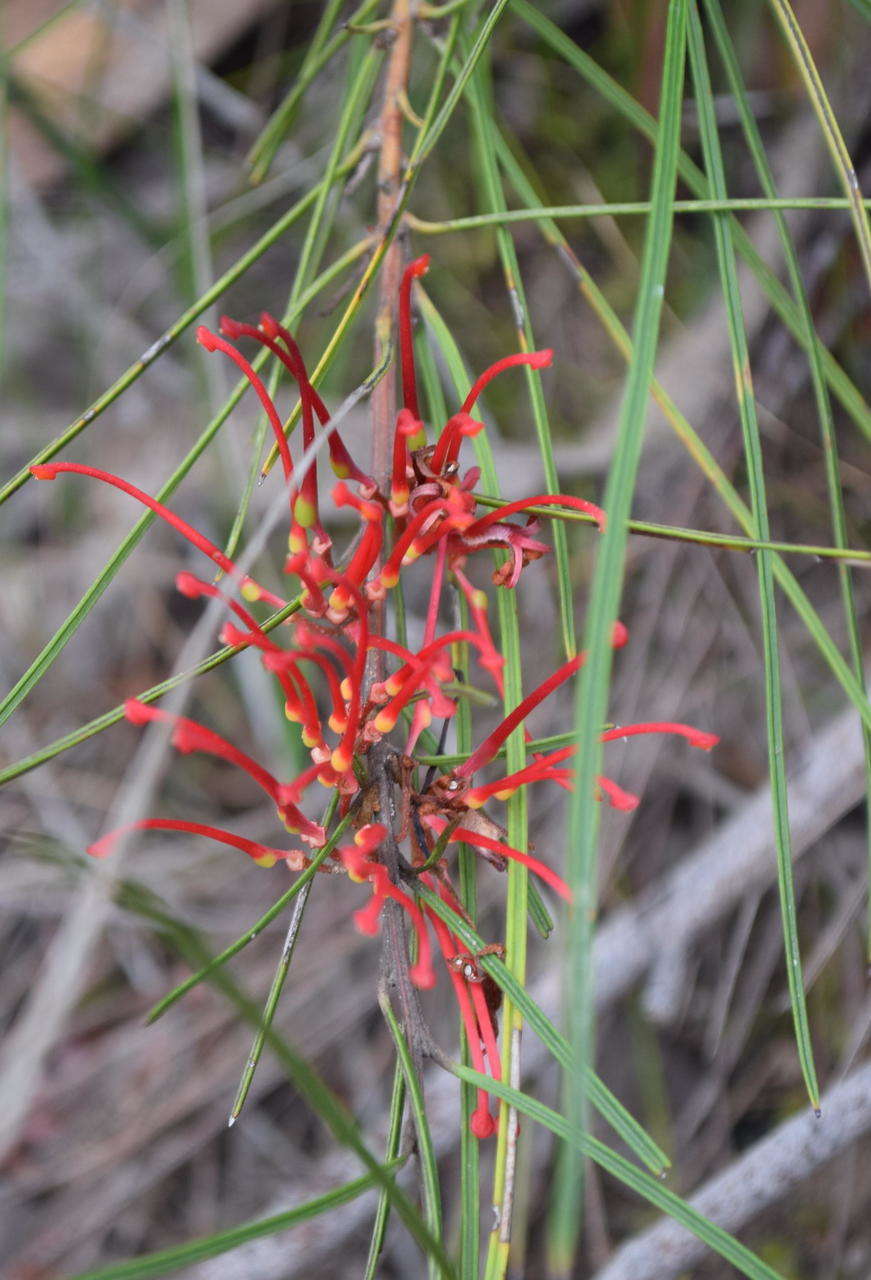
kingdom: Plantae
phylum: Tracheophyta
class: Magnoliopsida
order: Proteales
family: Proteaceae
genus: Grevillea
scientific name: Grevillea dimorpha
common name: Flame grevillea
